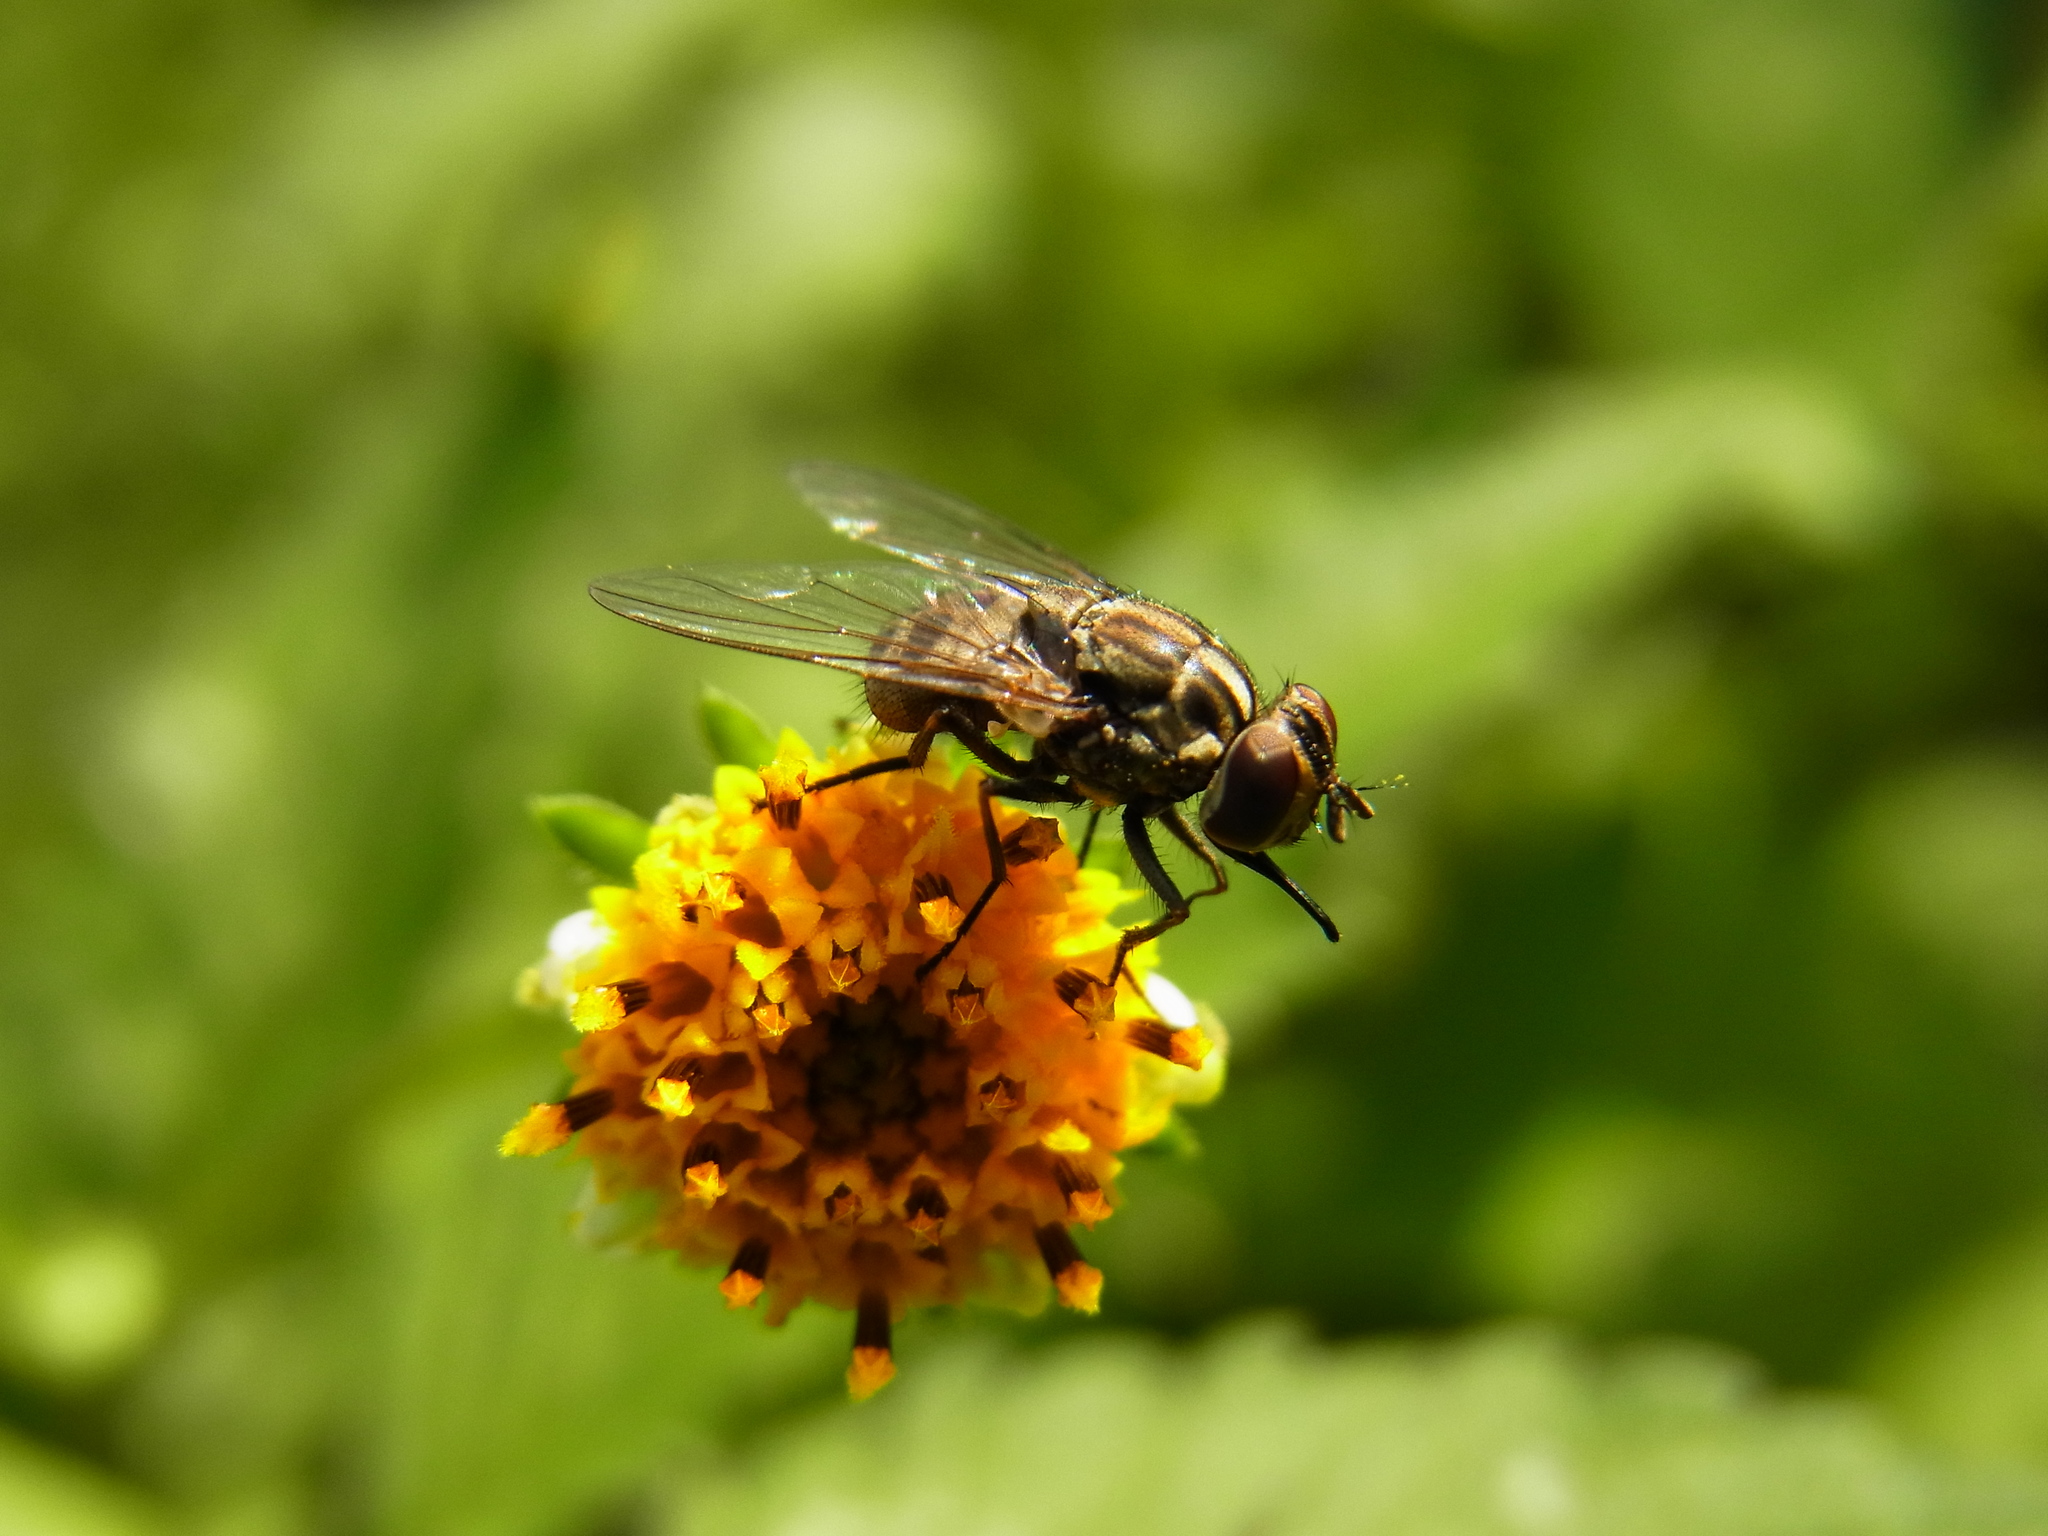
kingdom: Animalia
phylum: Arthropoda
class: Insecta
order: Diptera
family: Muscidae
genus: Stomoxys
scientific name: Stomoxys calcitrans
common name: Stable fly
